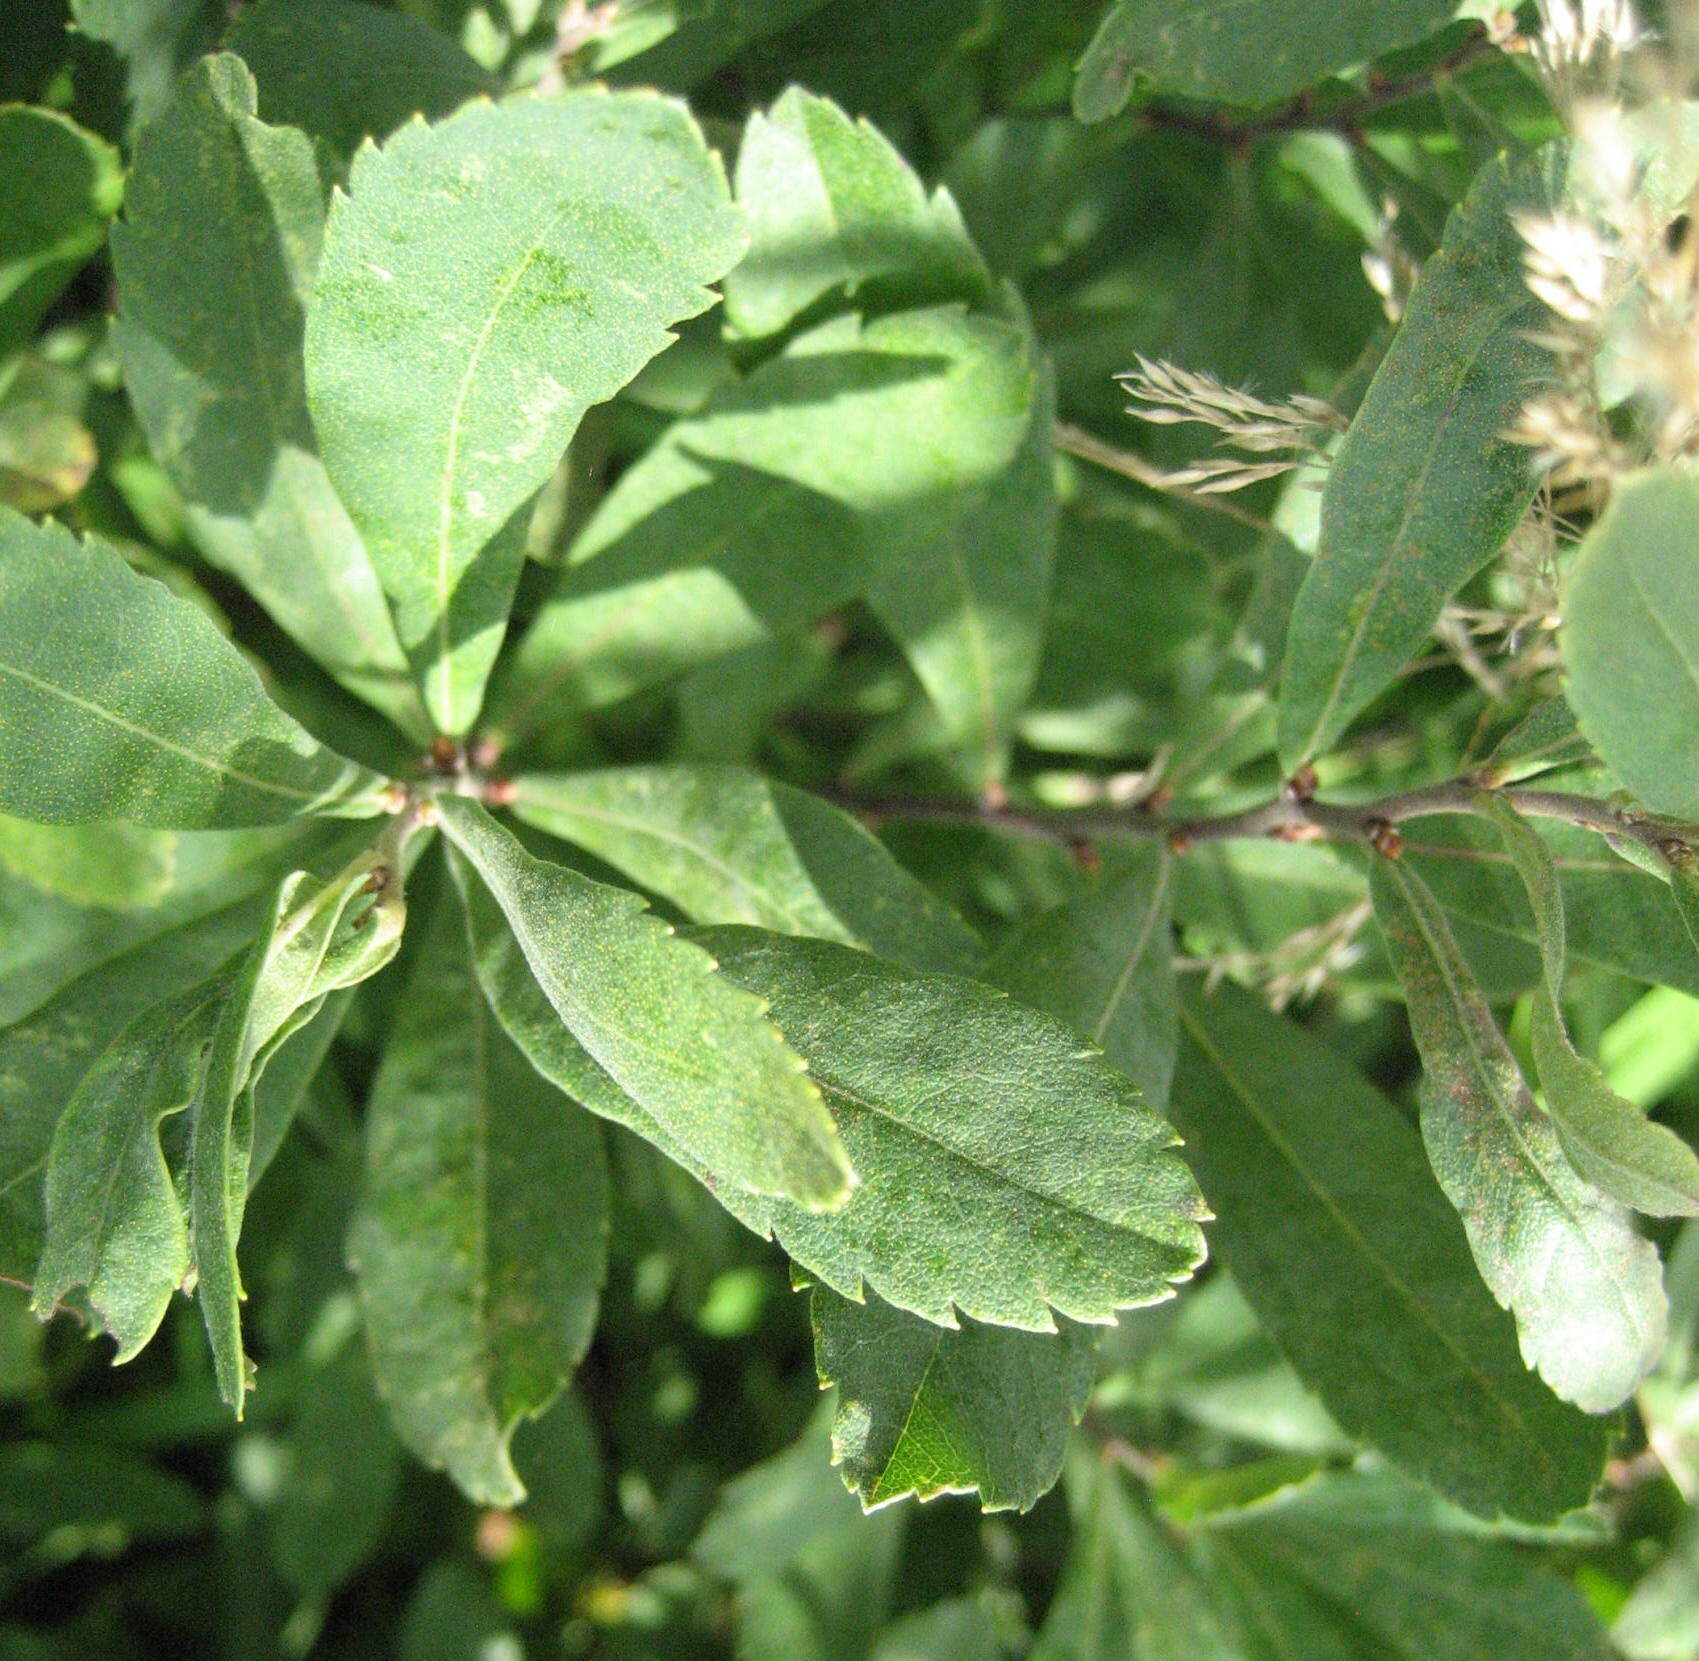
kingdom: Plantae
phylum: Tracheophyta
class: Magnoliopsida
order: Fagales
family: Myricaceae
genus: Myrica
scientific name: Myrica gale
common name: Sweet gale
